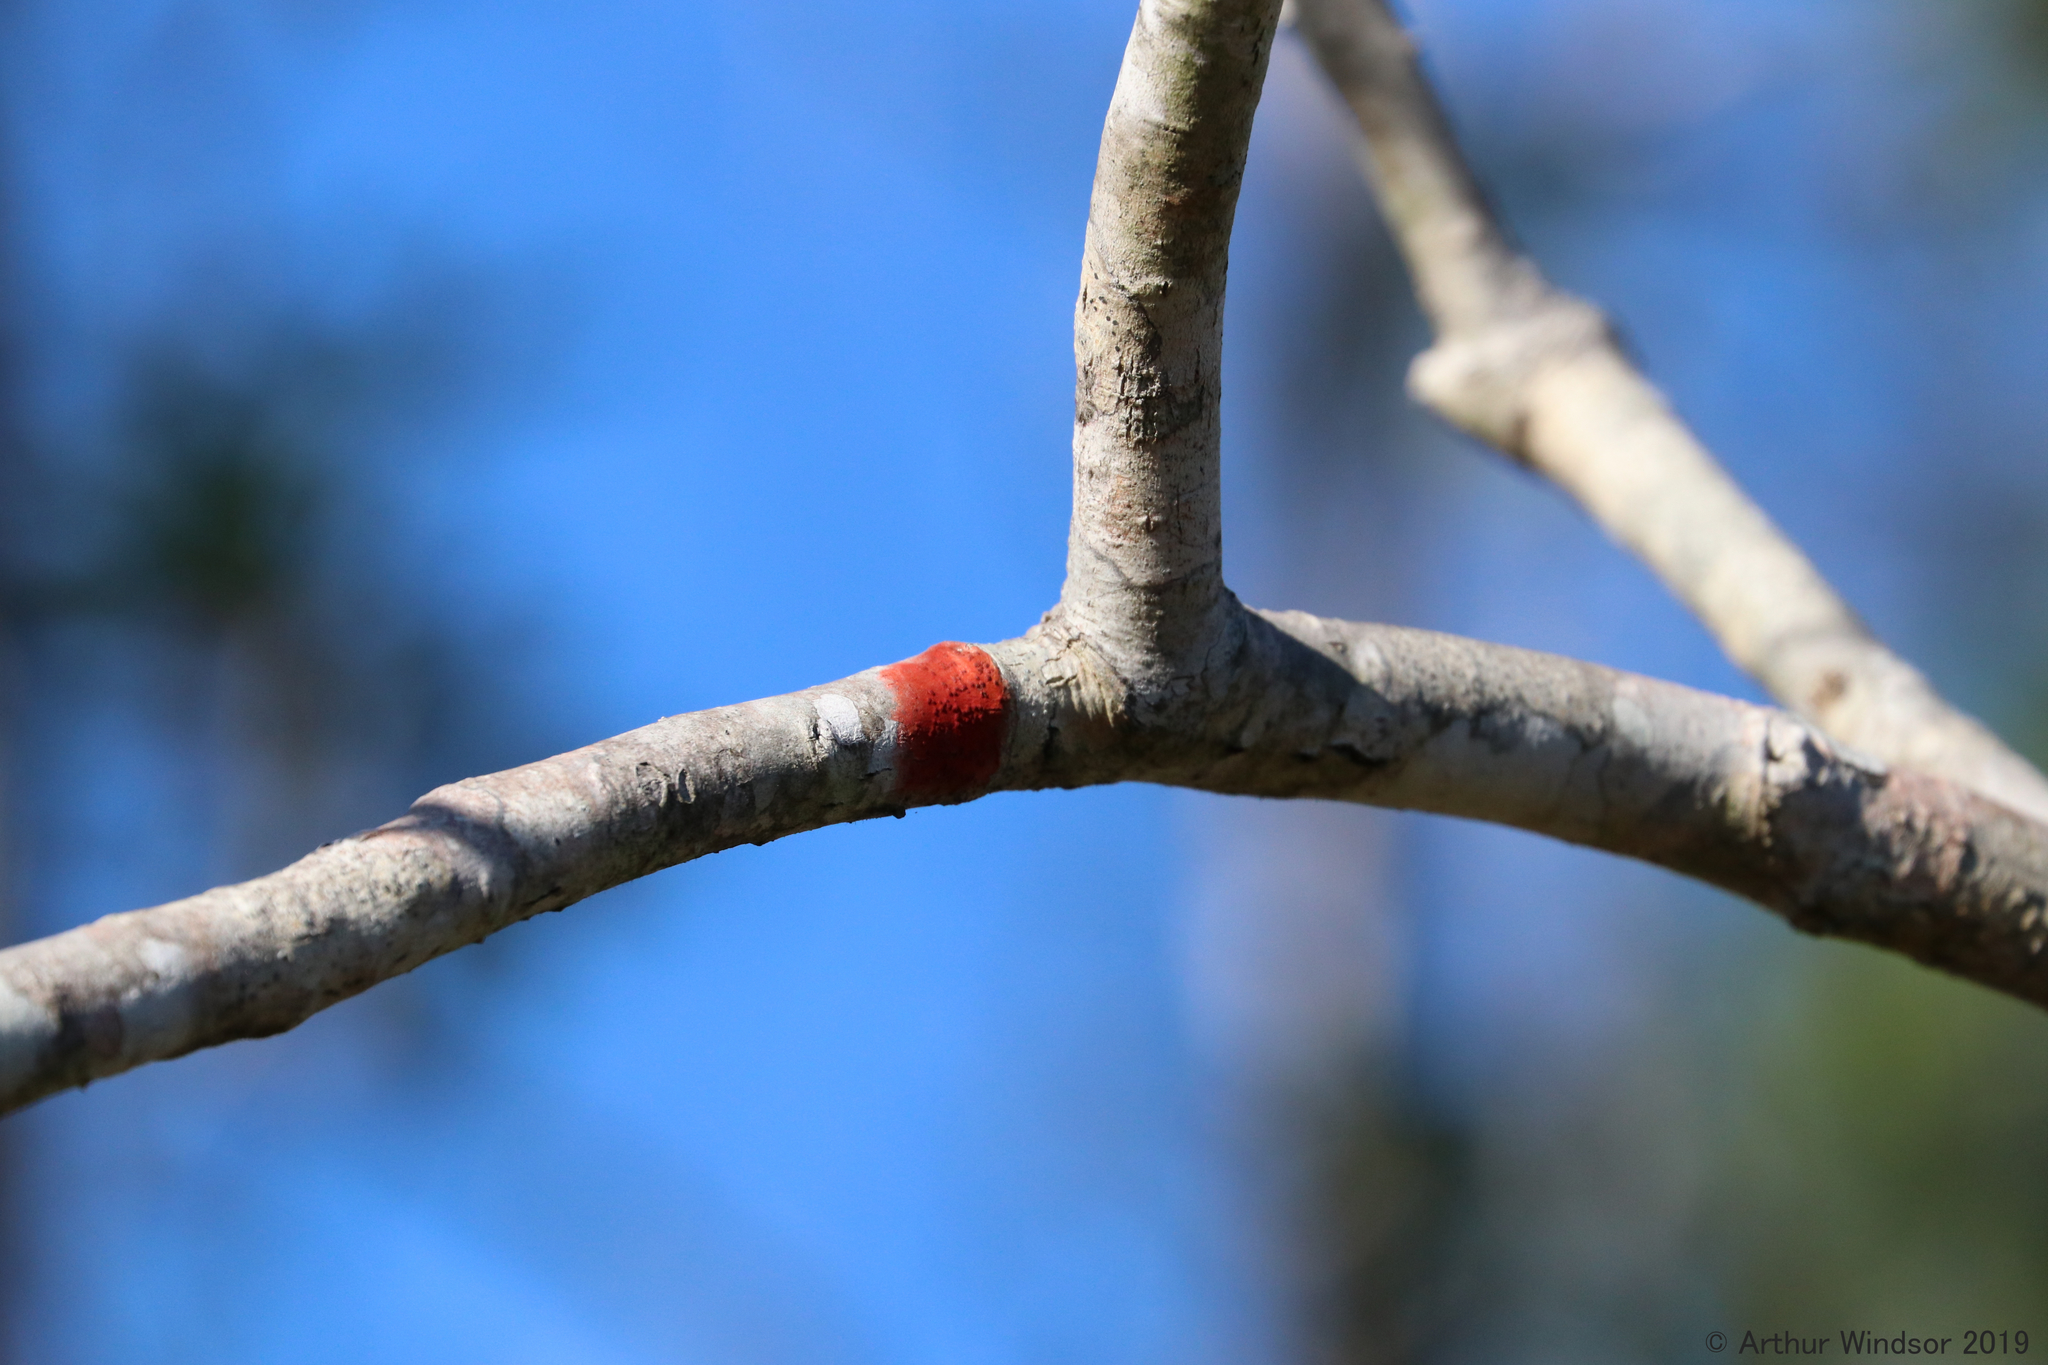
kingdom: Fungi
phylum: Ascomycota
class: Eurotiomycetes
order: Pyrenulales
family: Pyrenulaceae
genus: Pyrenula
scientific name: Pyrenula
